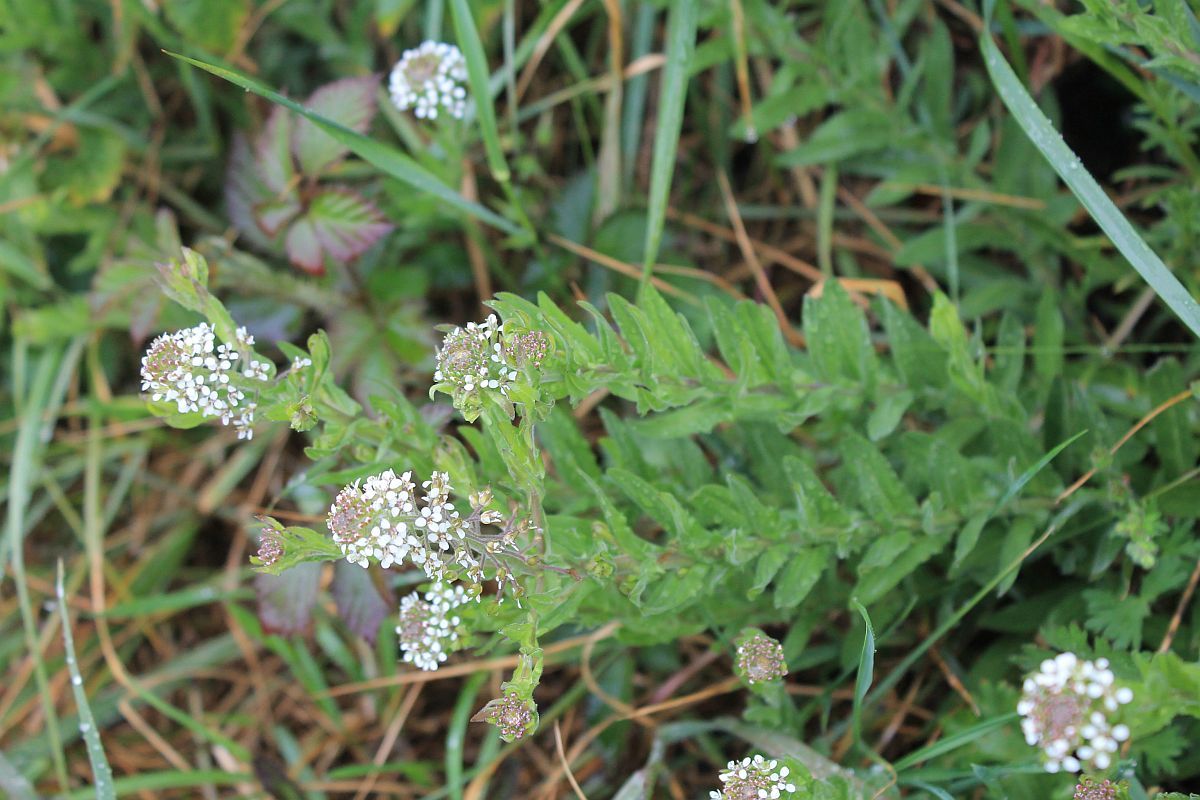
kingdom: Plantae
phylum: Tracheophyta
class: Magnoliopsida
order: Brassicales
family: Brassicaceae
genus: Lepidium
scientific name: Lepidium heterophyllum
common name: Smith's pepperwort
